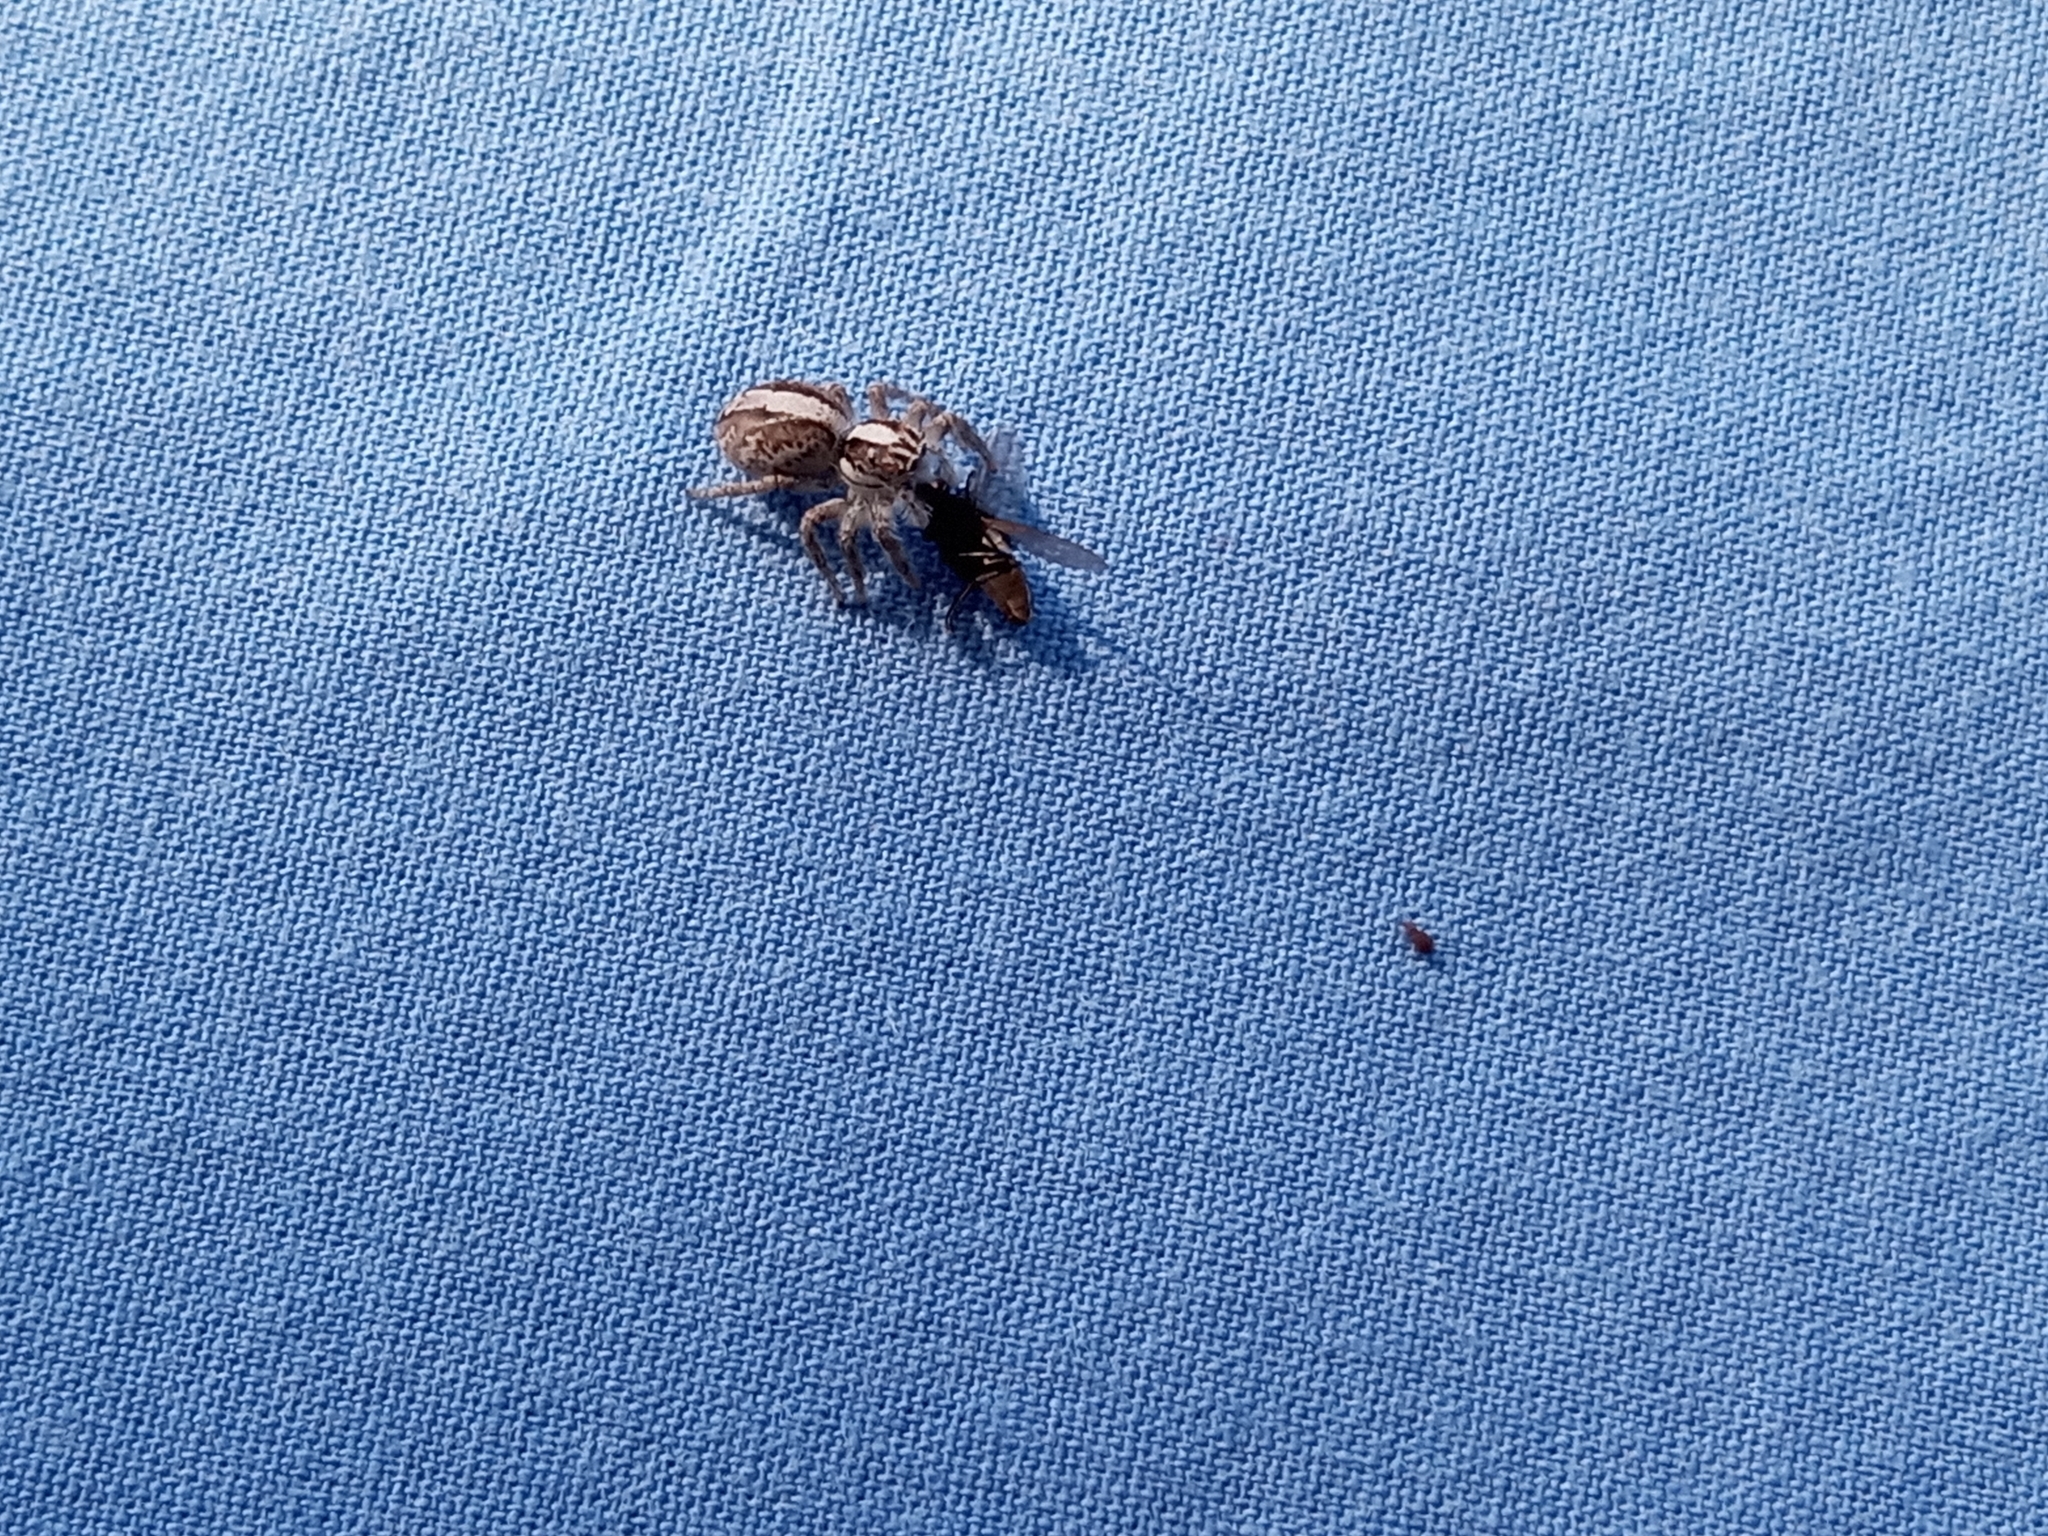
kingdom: Animalia
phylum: Arthropoda
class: Arachnida
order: Araneae
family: Salticidae
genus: Megafreya
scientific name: Megafreya sutrix
